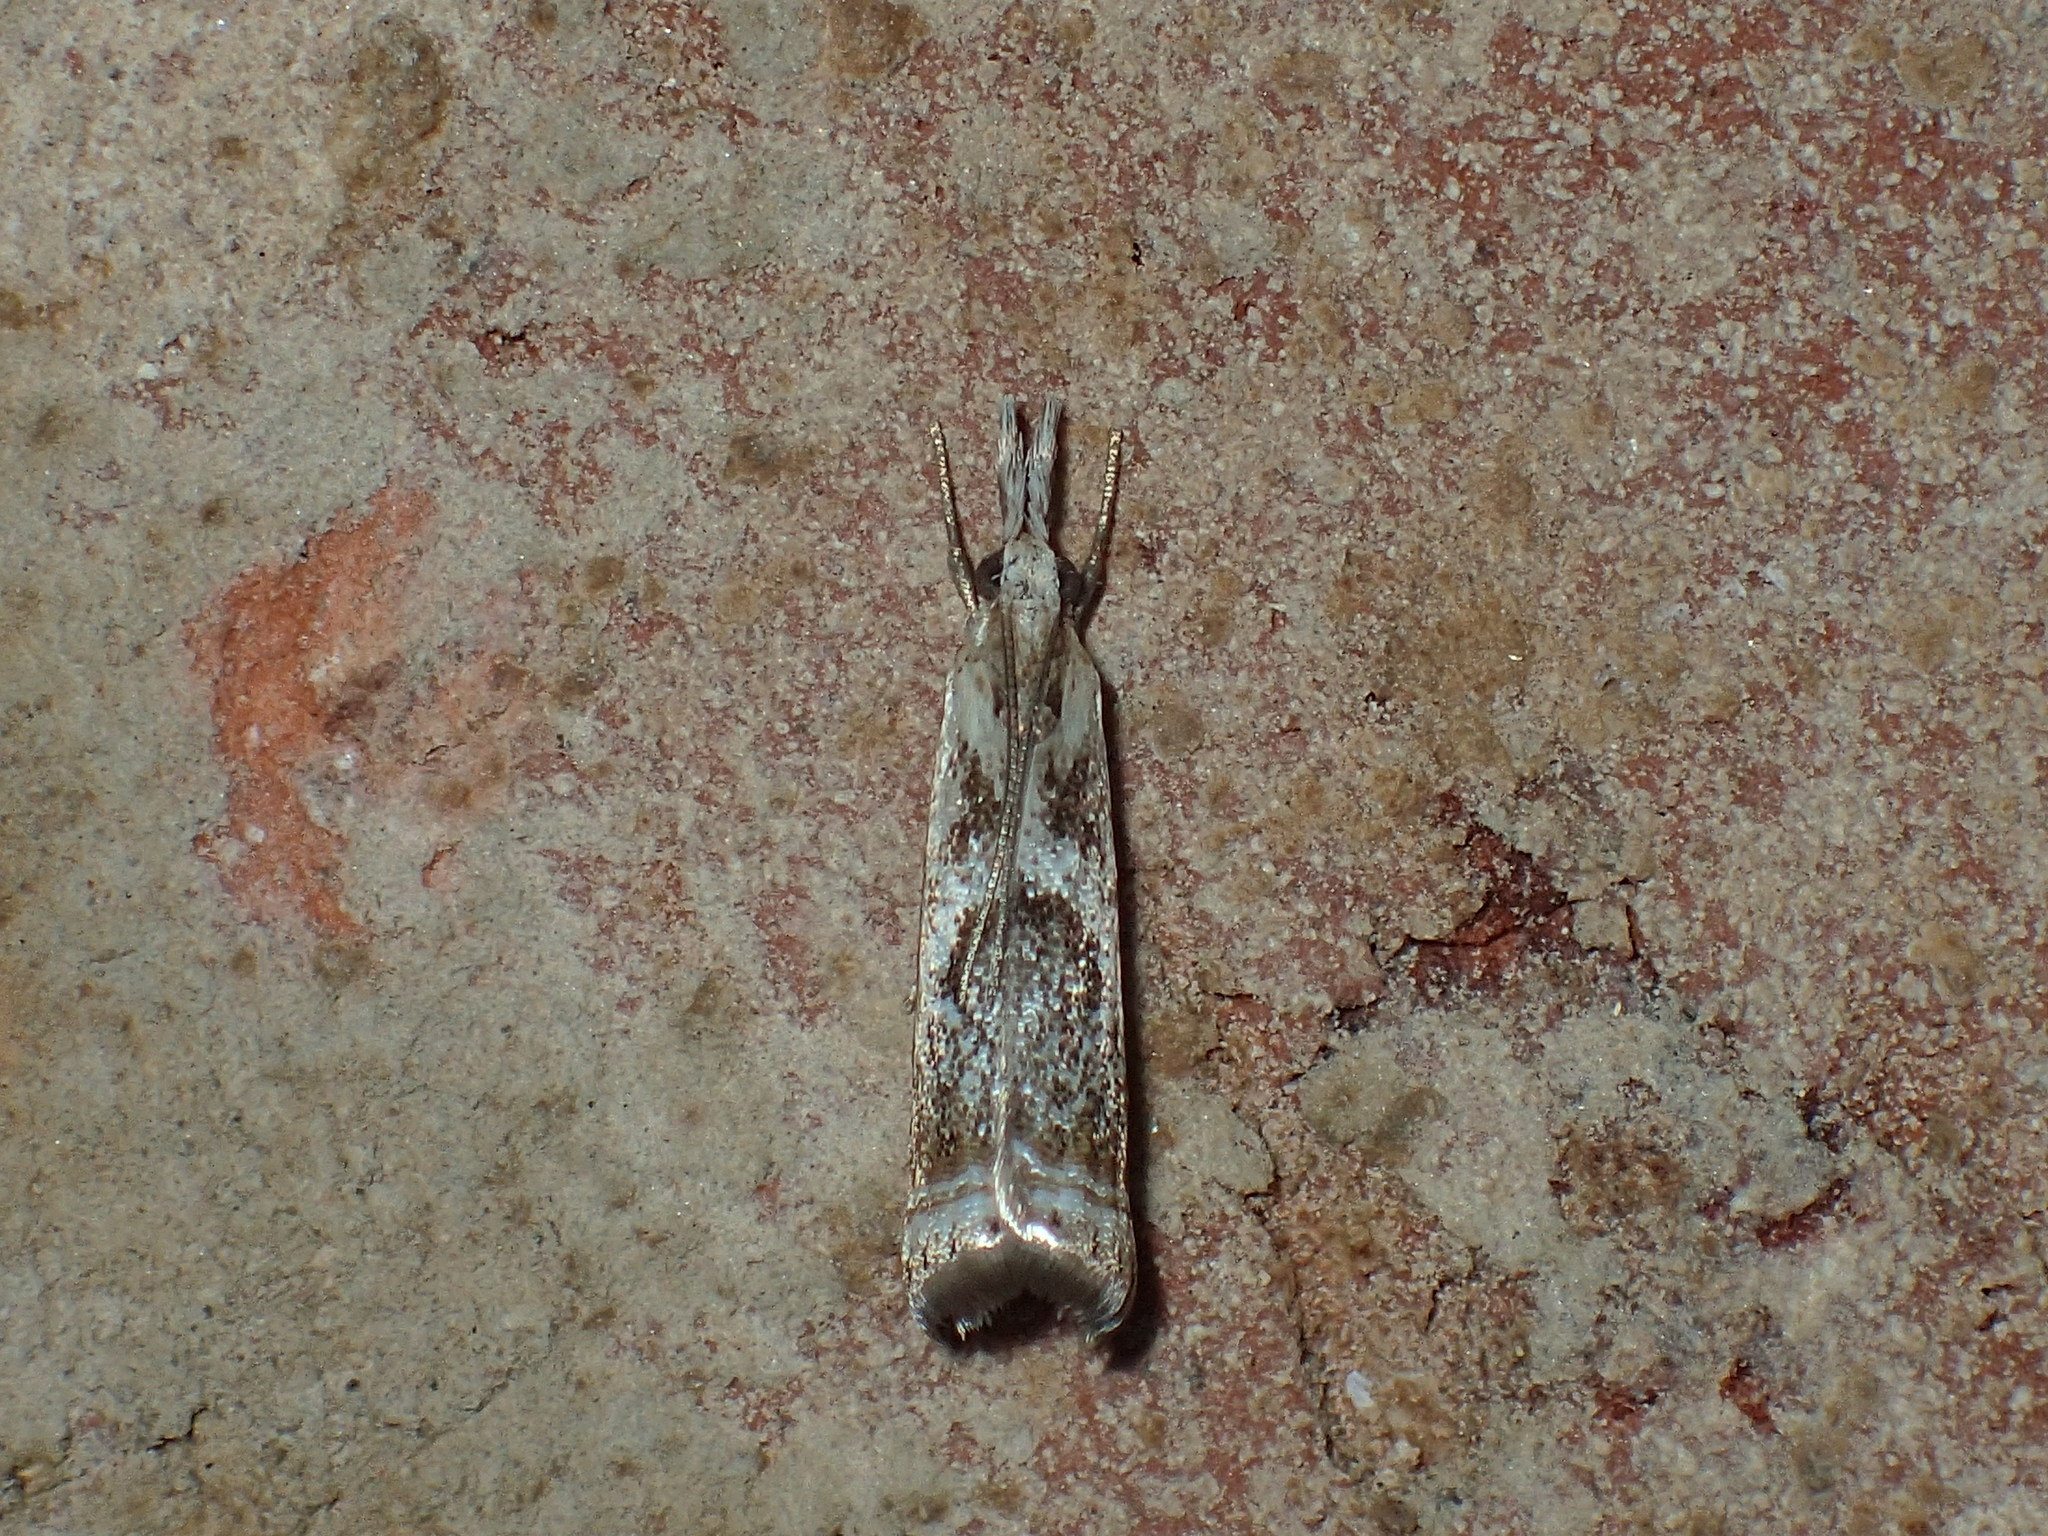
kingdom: Animalia
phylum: Arthropoda
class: Insecta
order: Lepidoptera
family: Crambidae
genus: Microcrambus
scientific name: Microcrambus elegans
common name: Elegant grass-veneer
